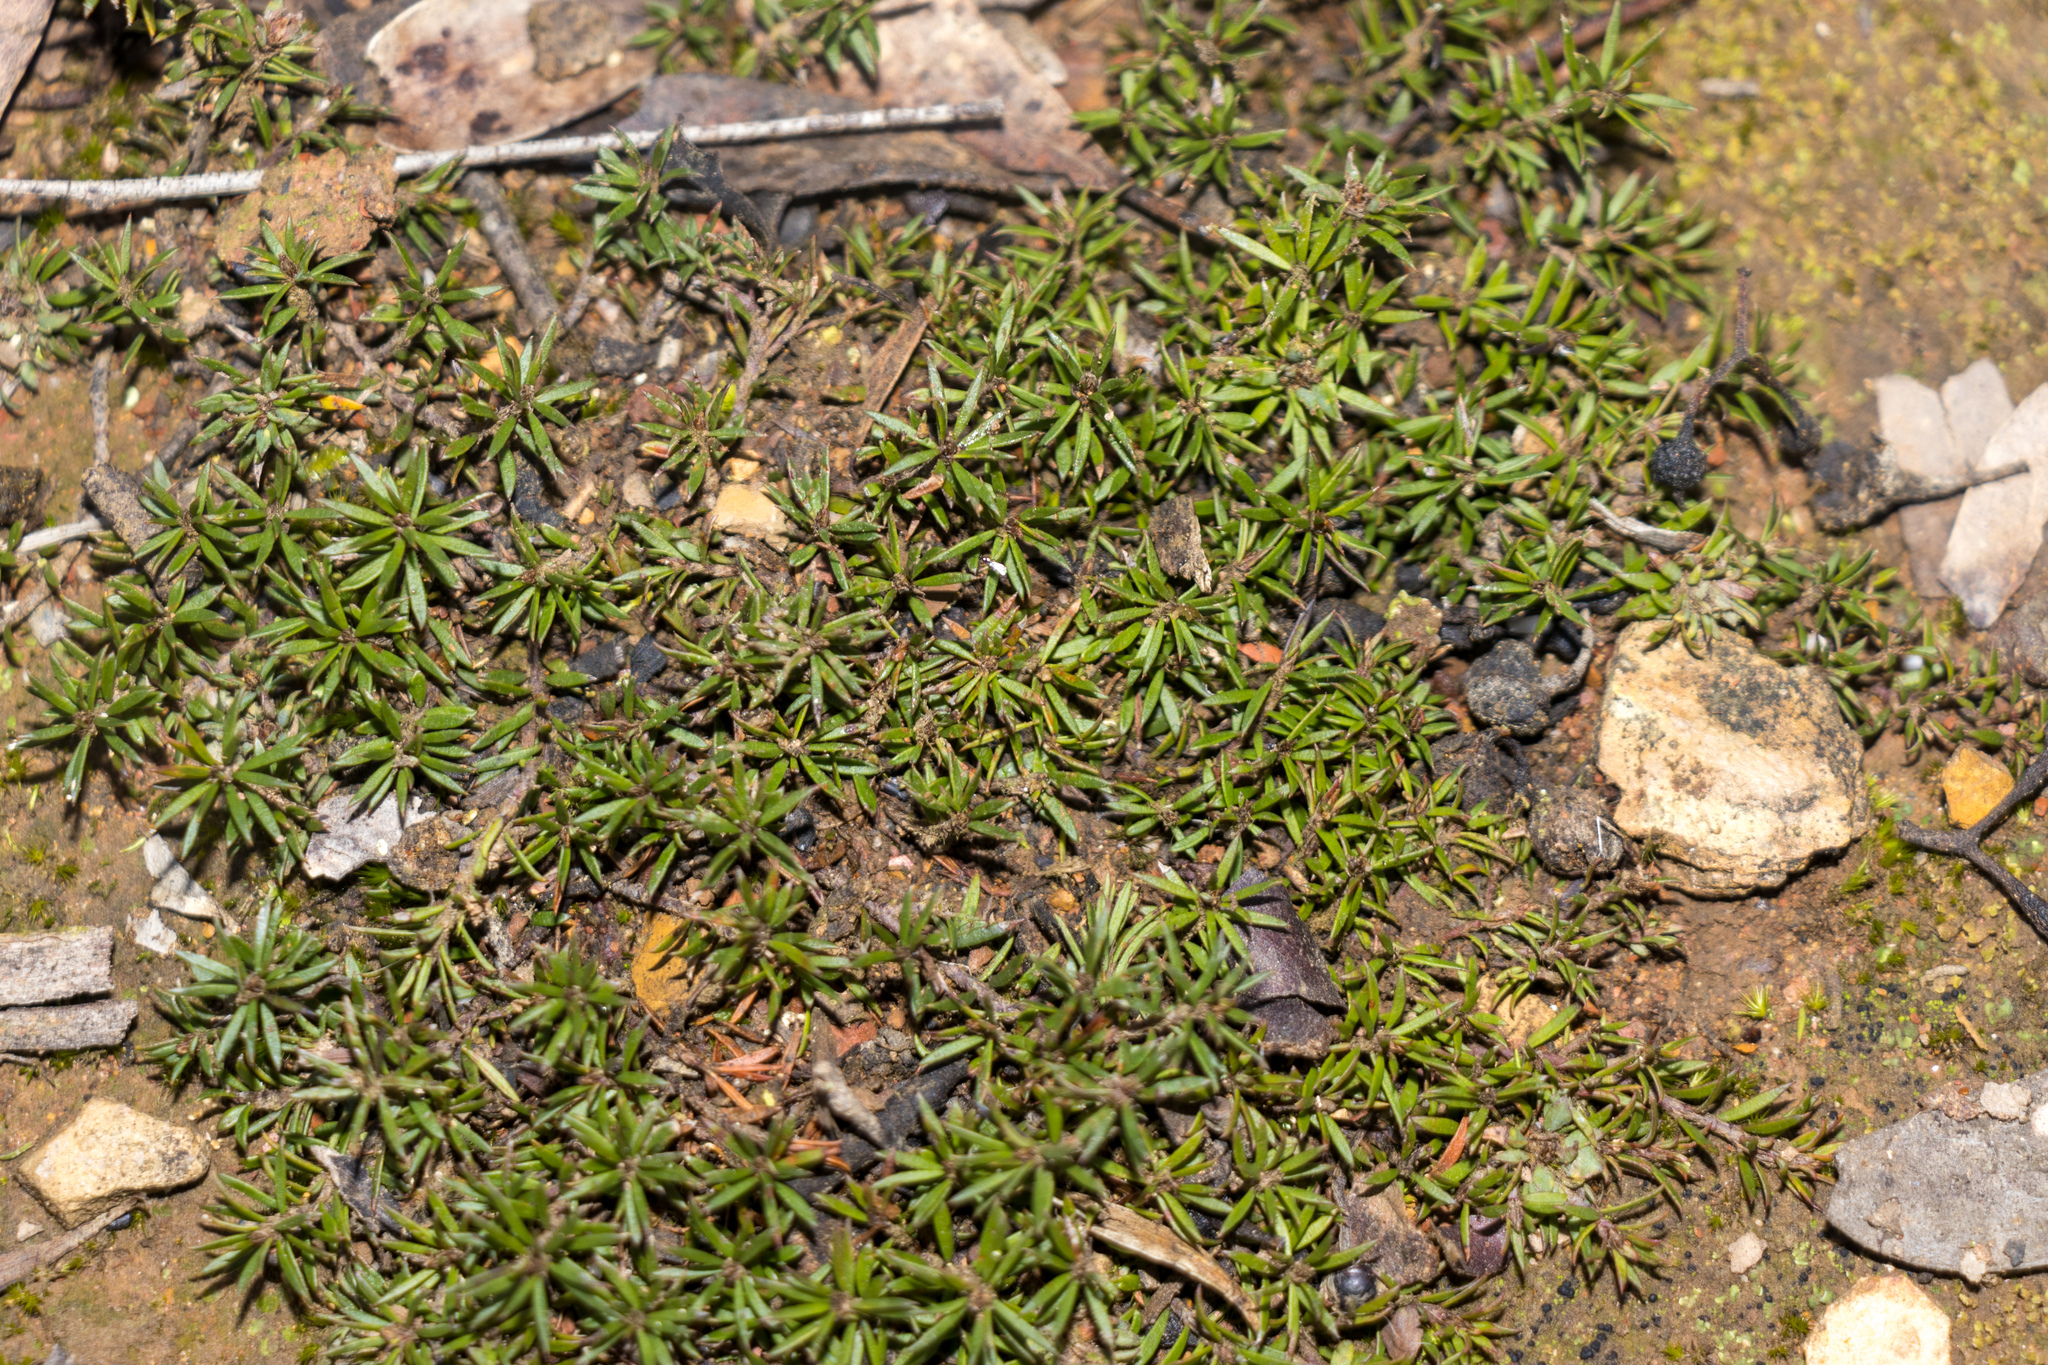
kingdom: Plantae
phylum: Tracheophyta
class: Magnoliopsida
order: Fabales
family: Fabaceae
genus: Pultenaea
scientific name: Pultenaea pedunculata
